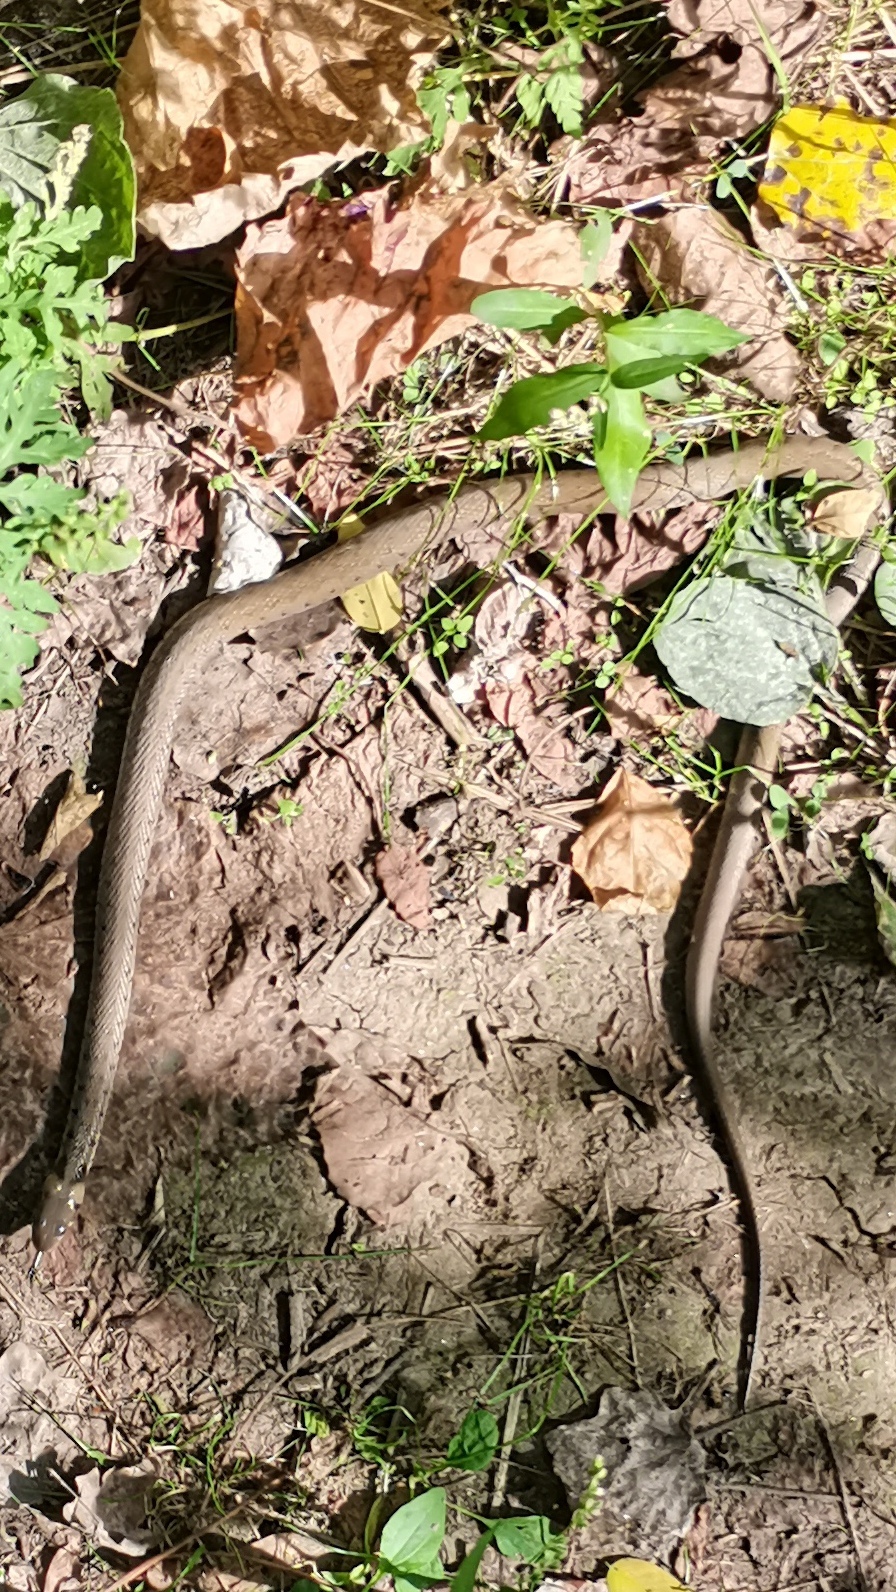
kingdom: Animalia
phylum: Chordata
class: Squamata
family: Colubridae
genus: Natrix
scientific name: Natrix natrix
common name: Grass snake
